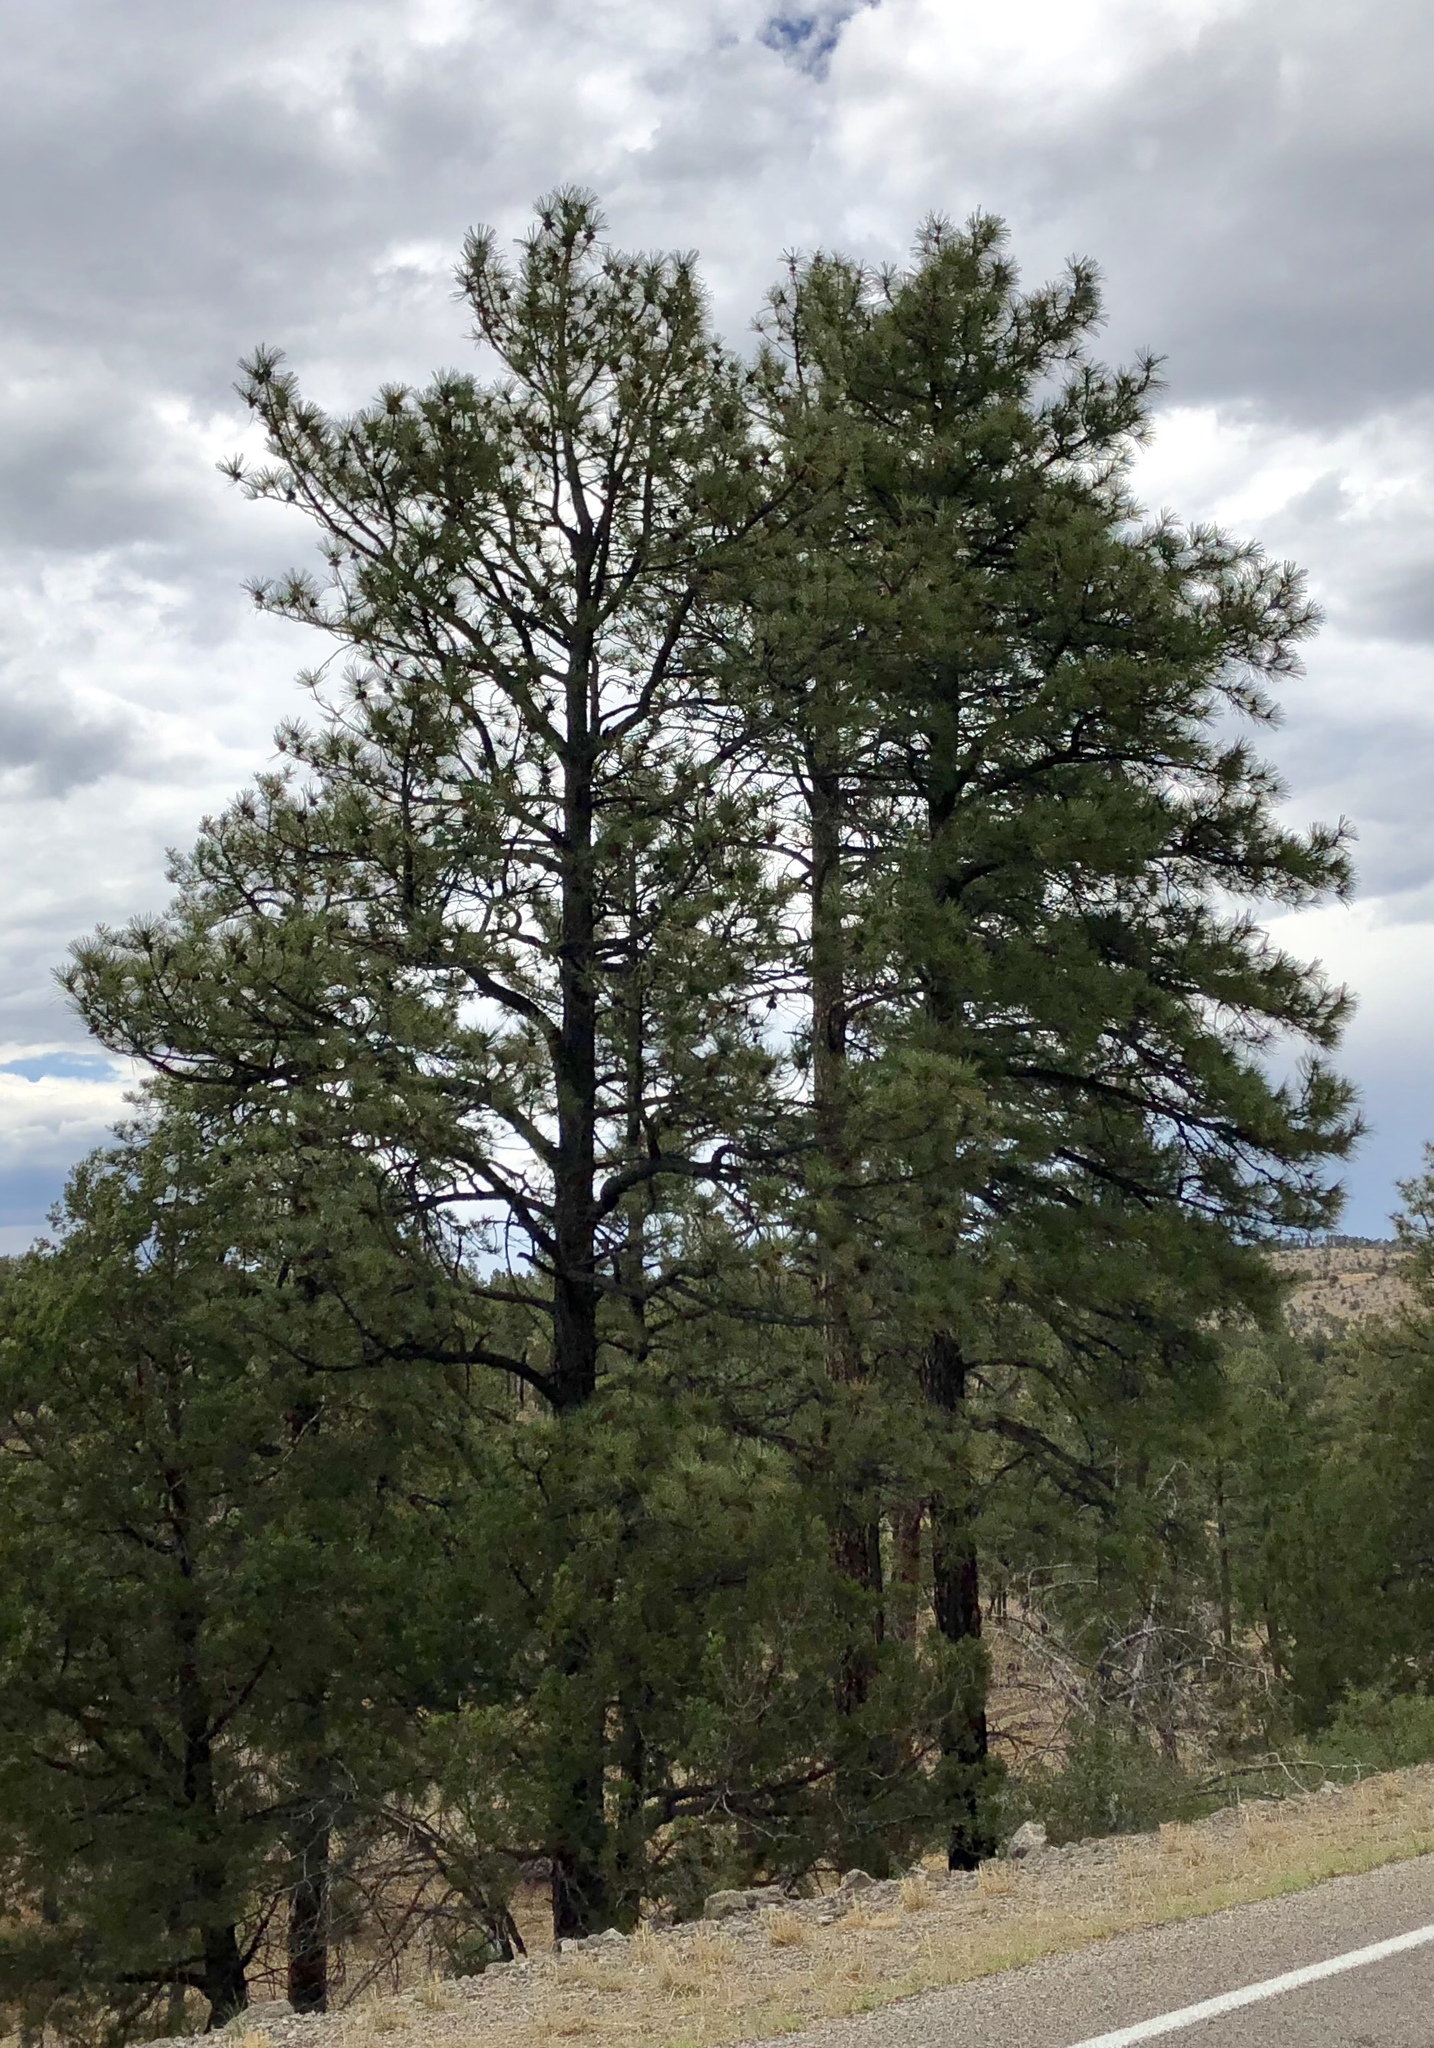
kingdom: Plantae
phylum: Tracheophyta
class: Pinopsida
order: Pinales
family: Pinaceae
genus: Pinus
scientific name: Pinus ponderosa
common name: Western yellow-pine
